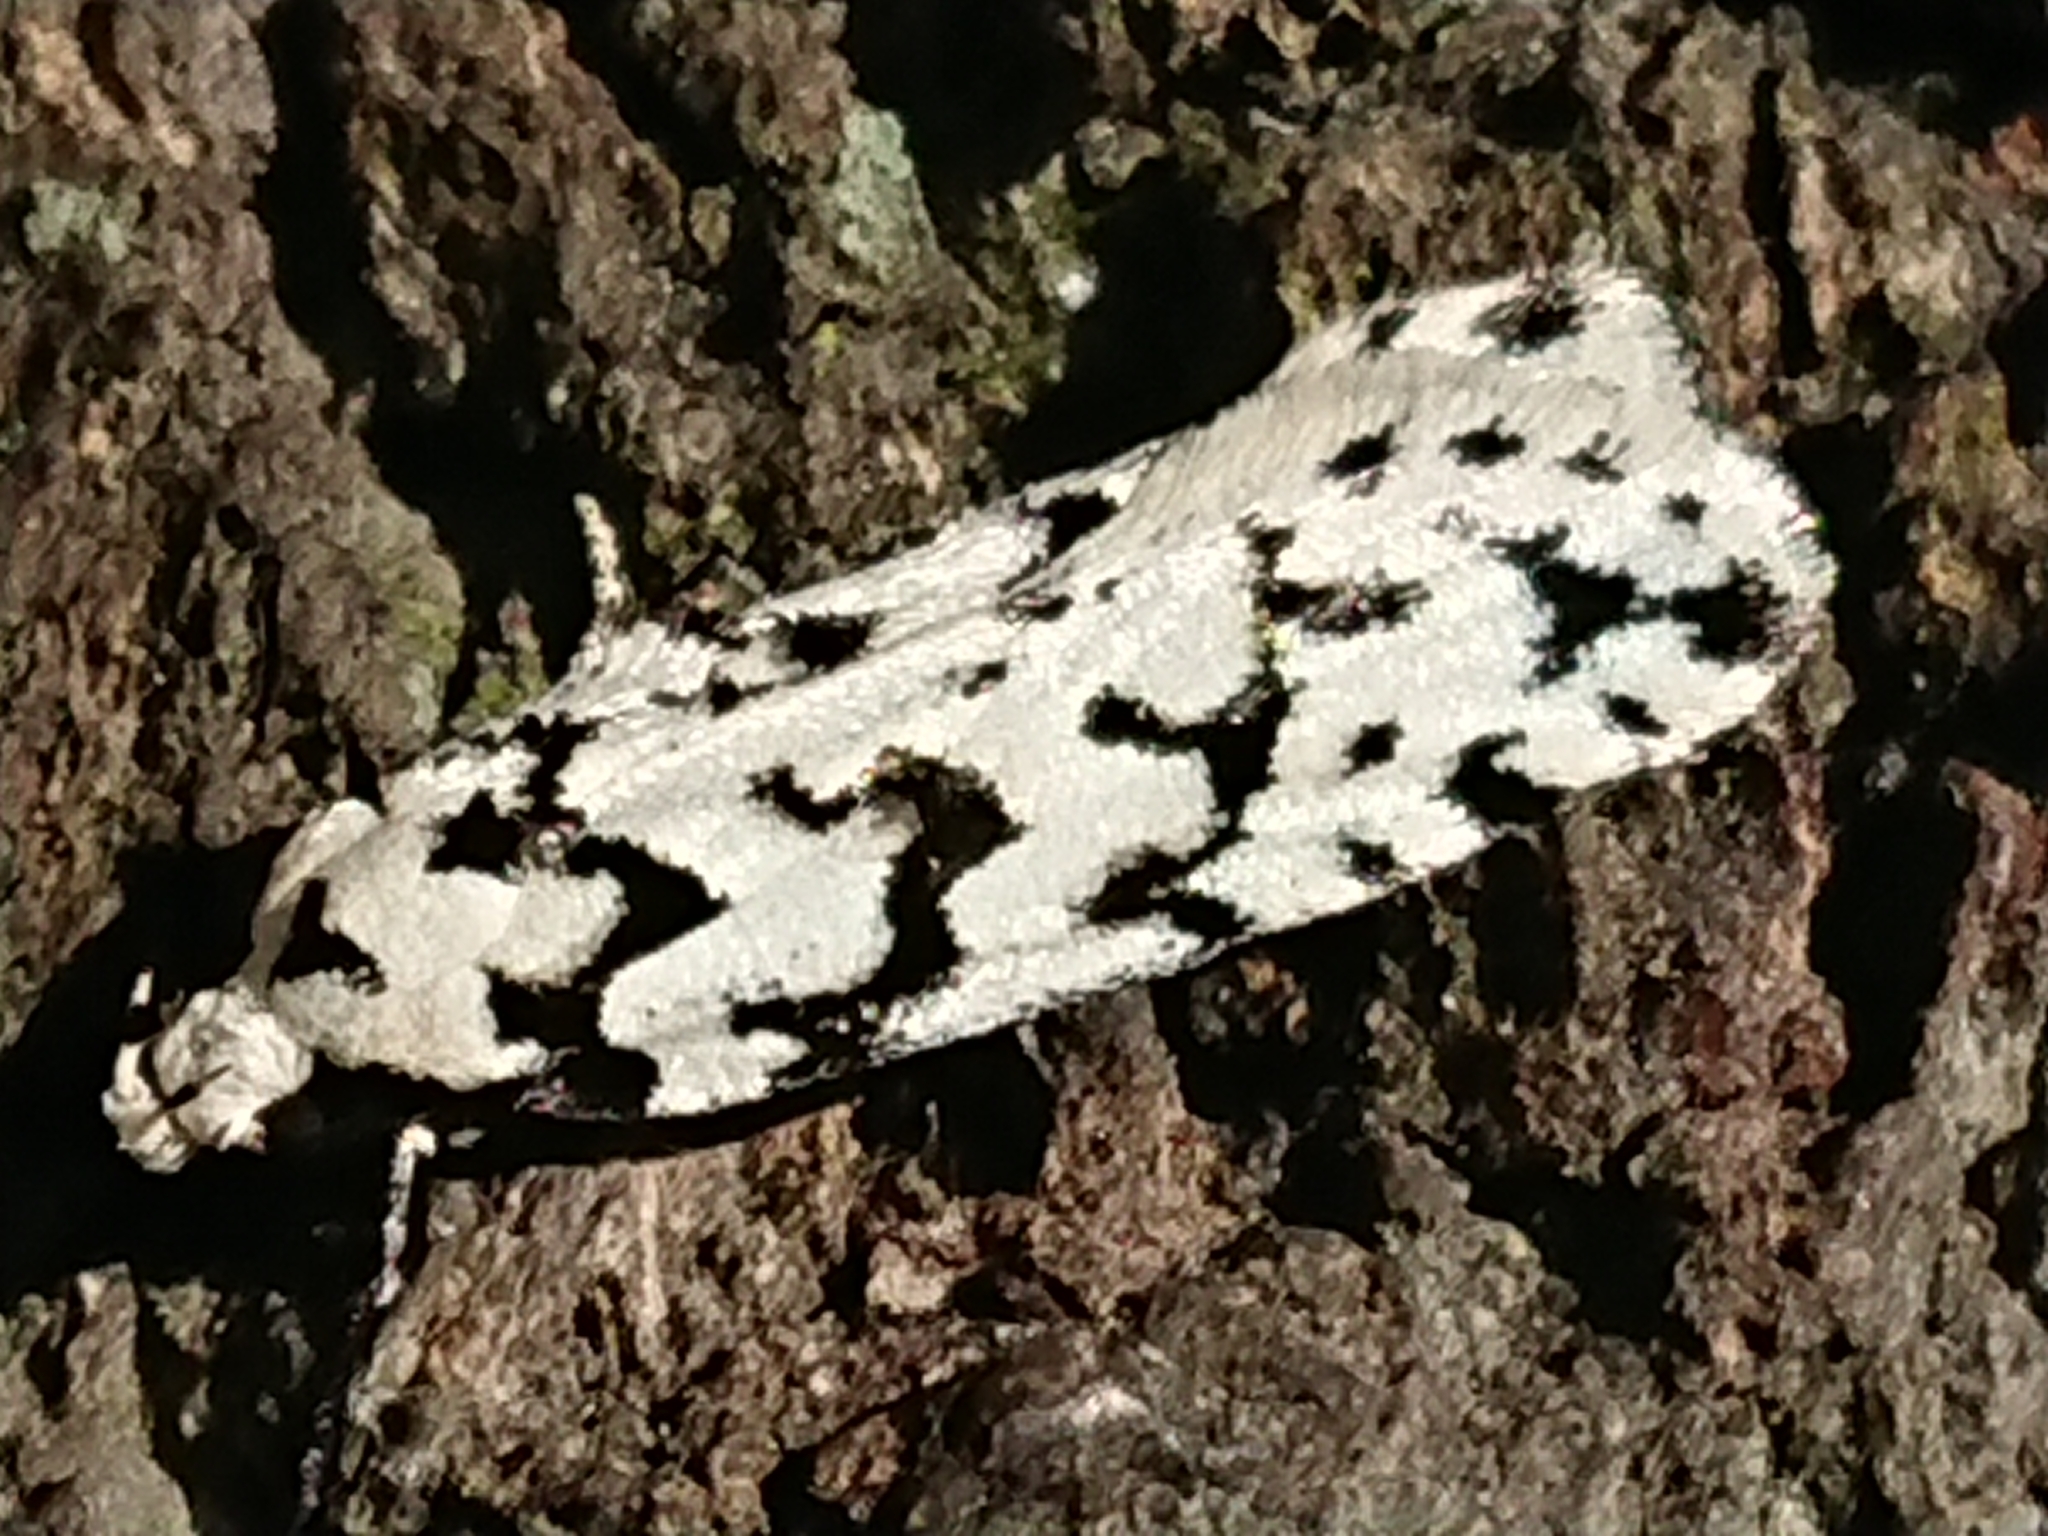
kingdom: Animalia
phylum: Arthropoda
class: Insecta
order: Lepidoptera
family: Oecophoridae
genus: Izatha
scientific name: Izatha katadiktya
